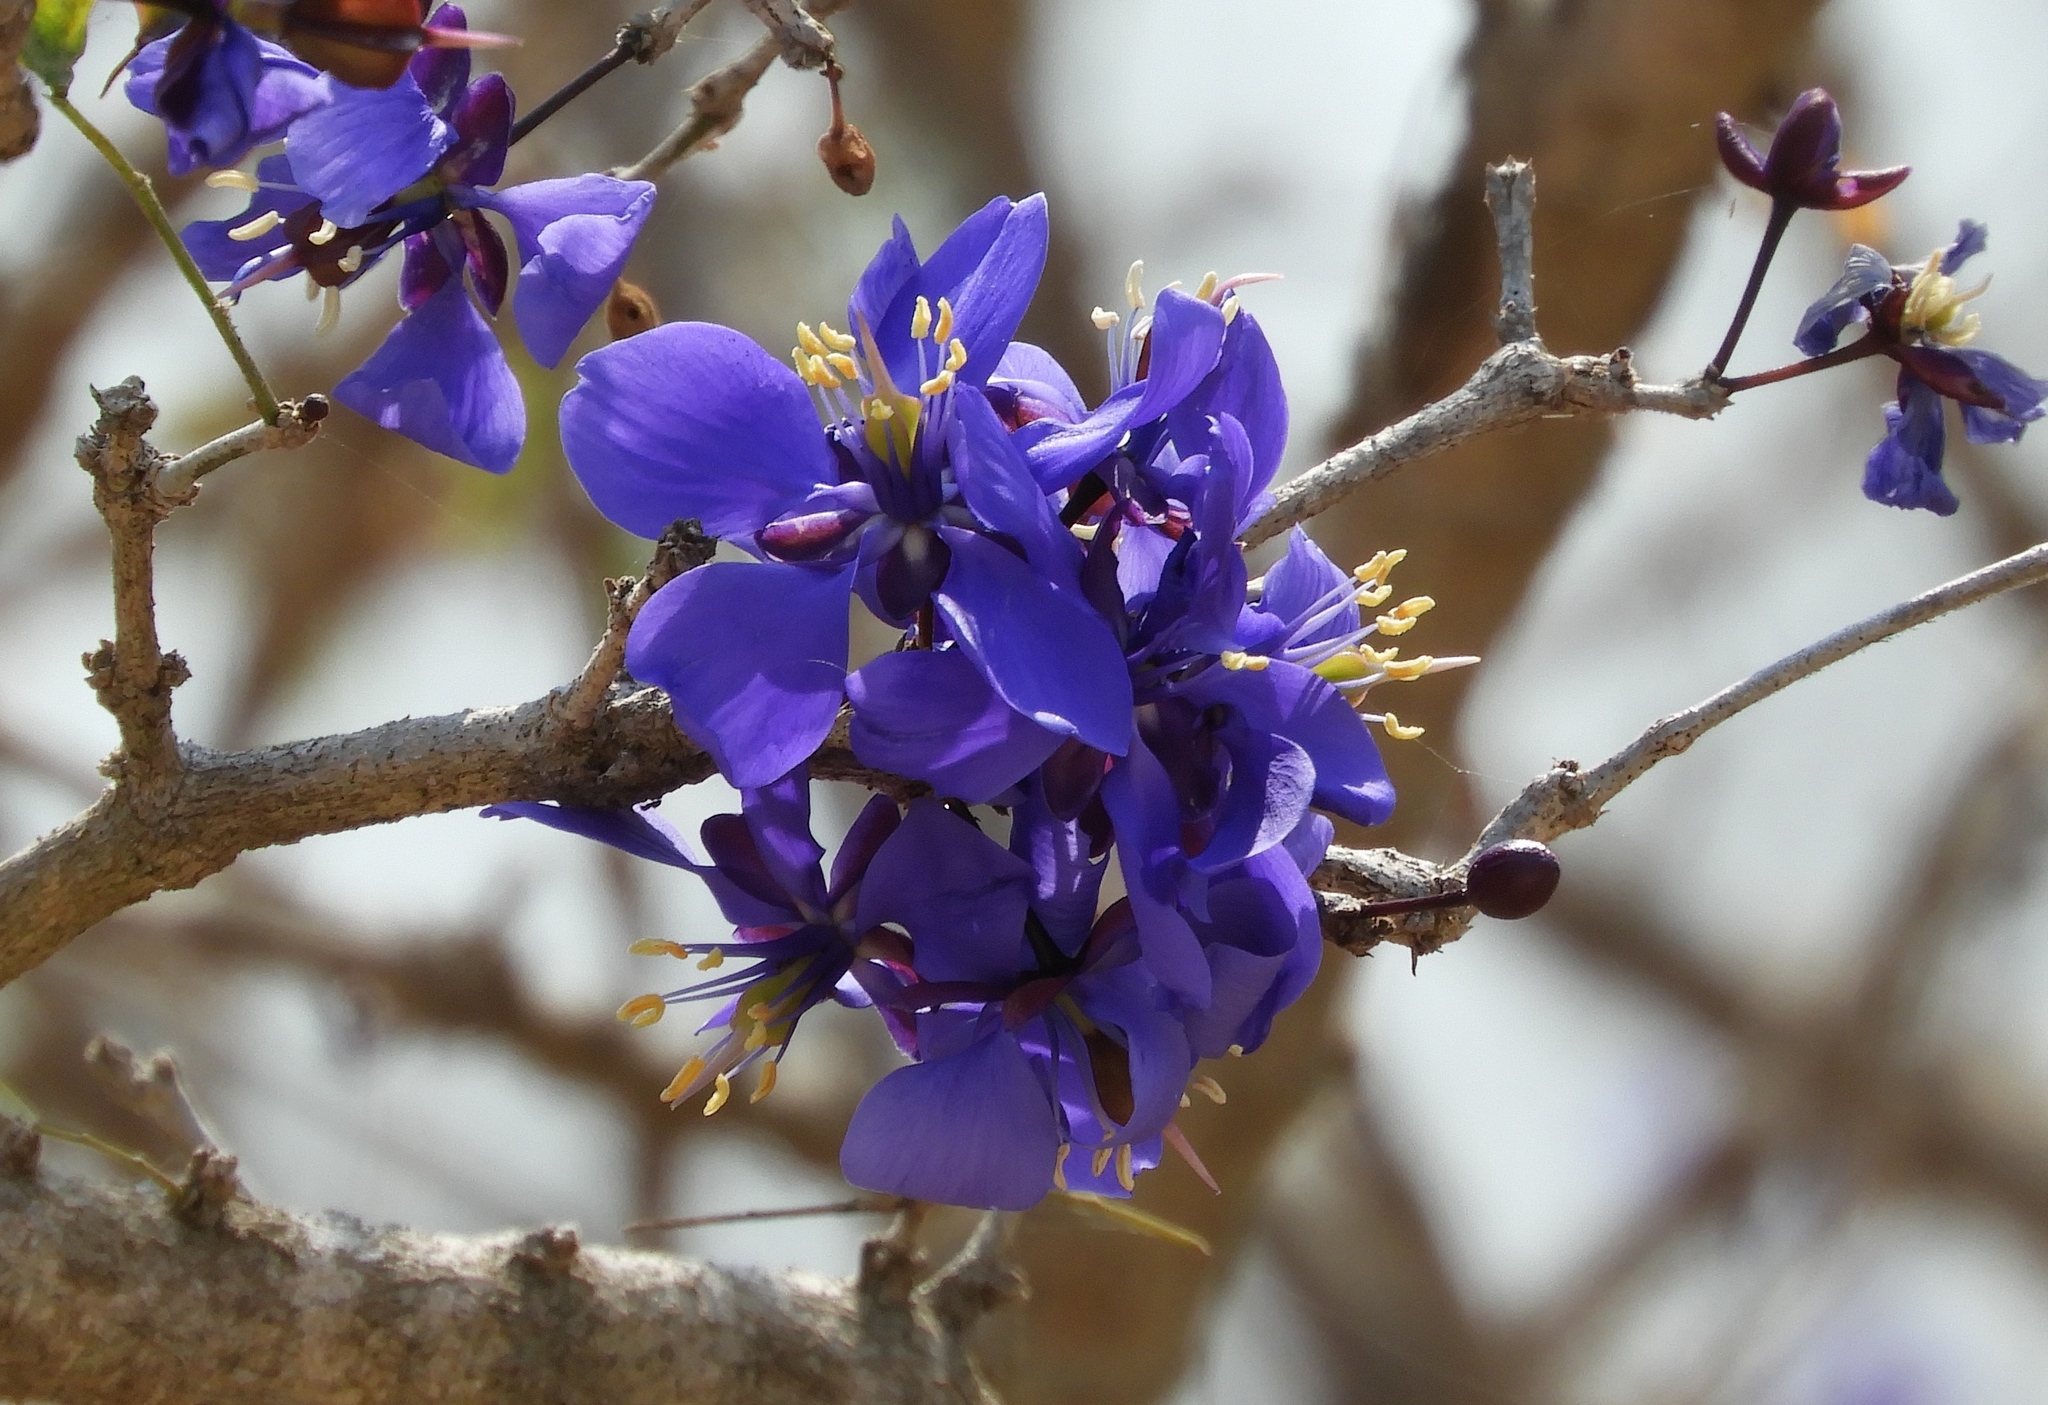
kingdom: Plantae
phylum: Tracheophyta
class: Magnoliopsida
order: Zygophyllales
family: Zygophyllaceae
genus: Guaiacum
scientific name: Guaiacum coulteri
